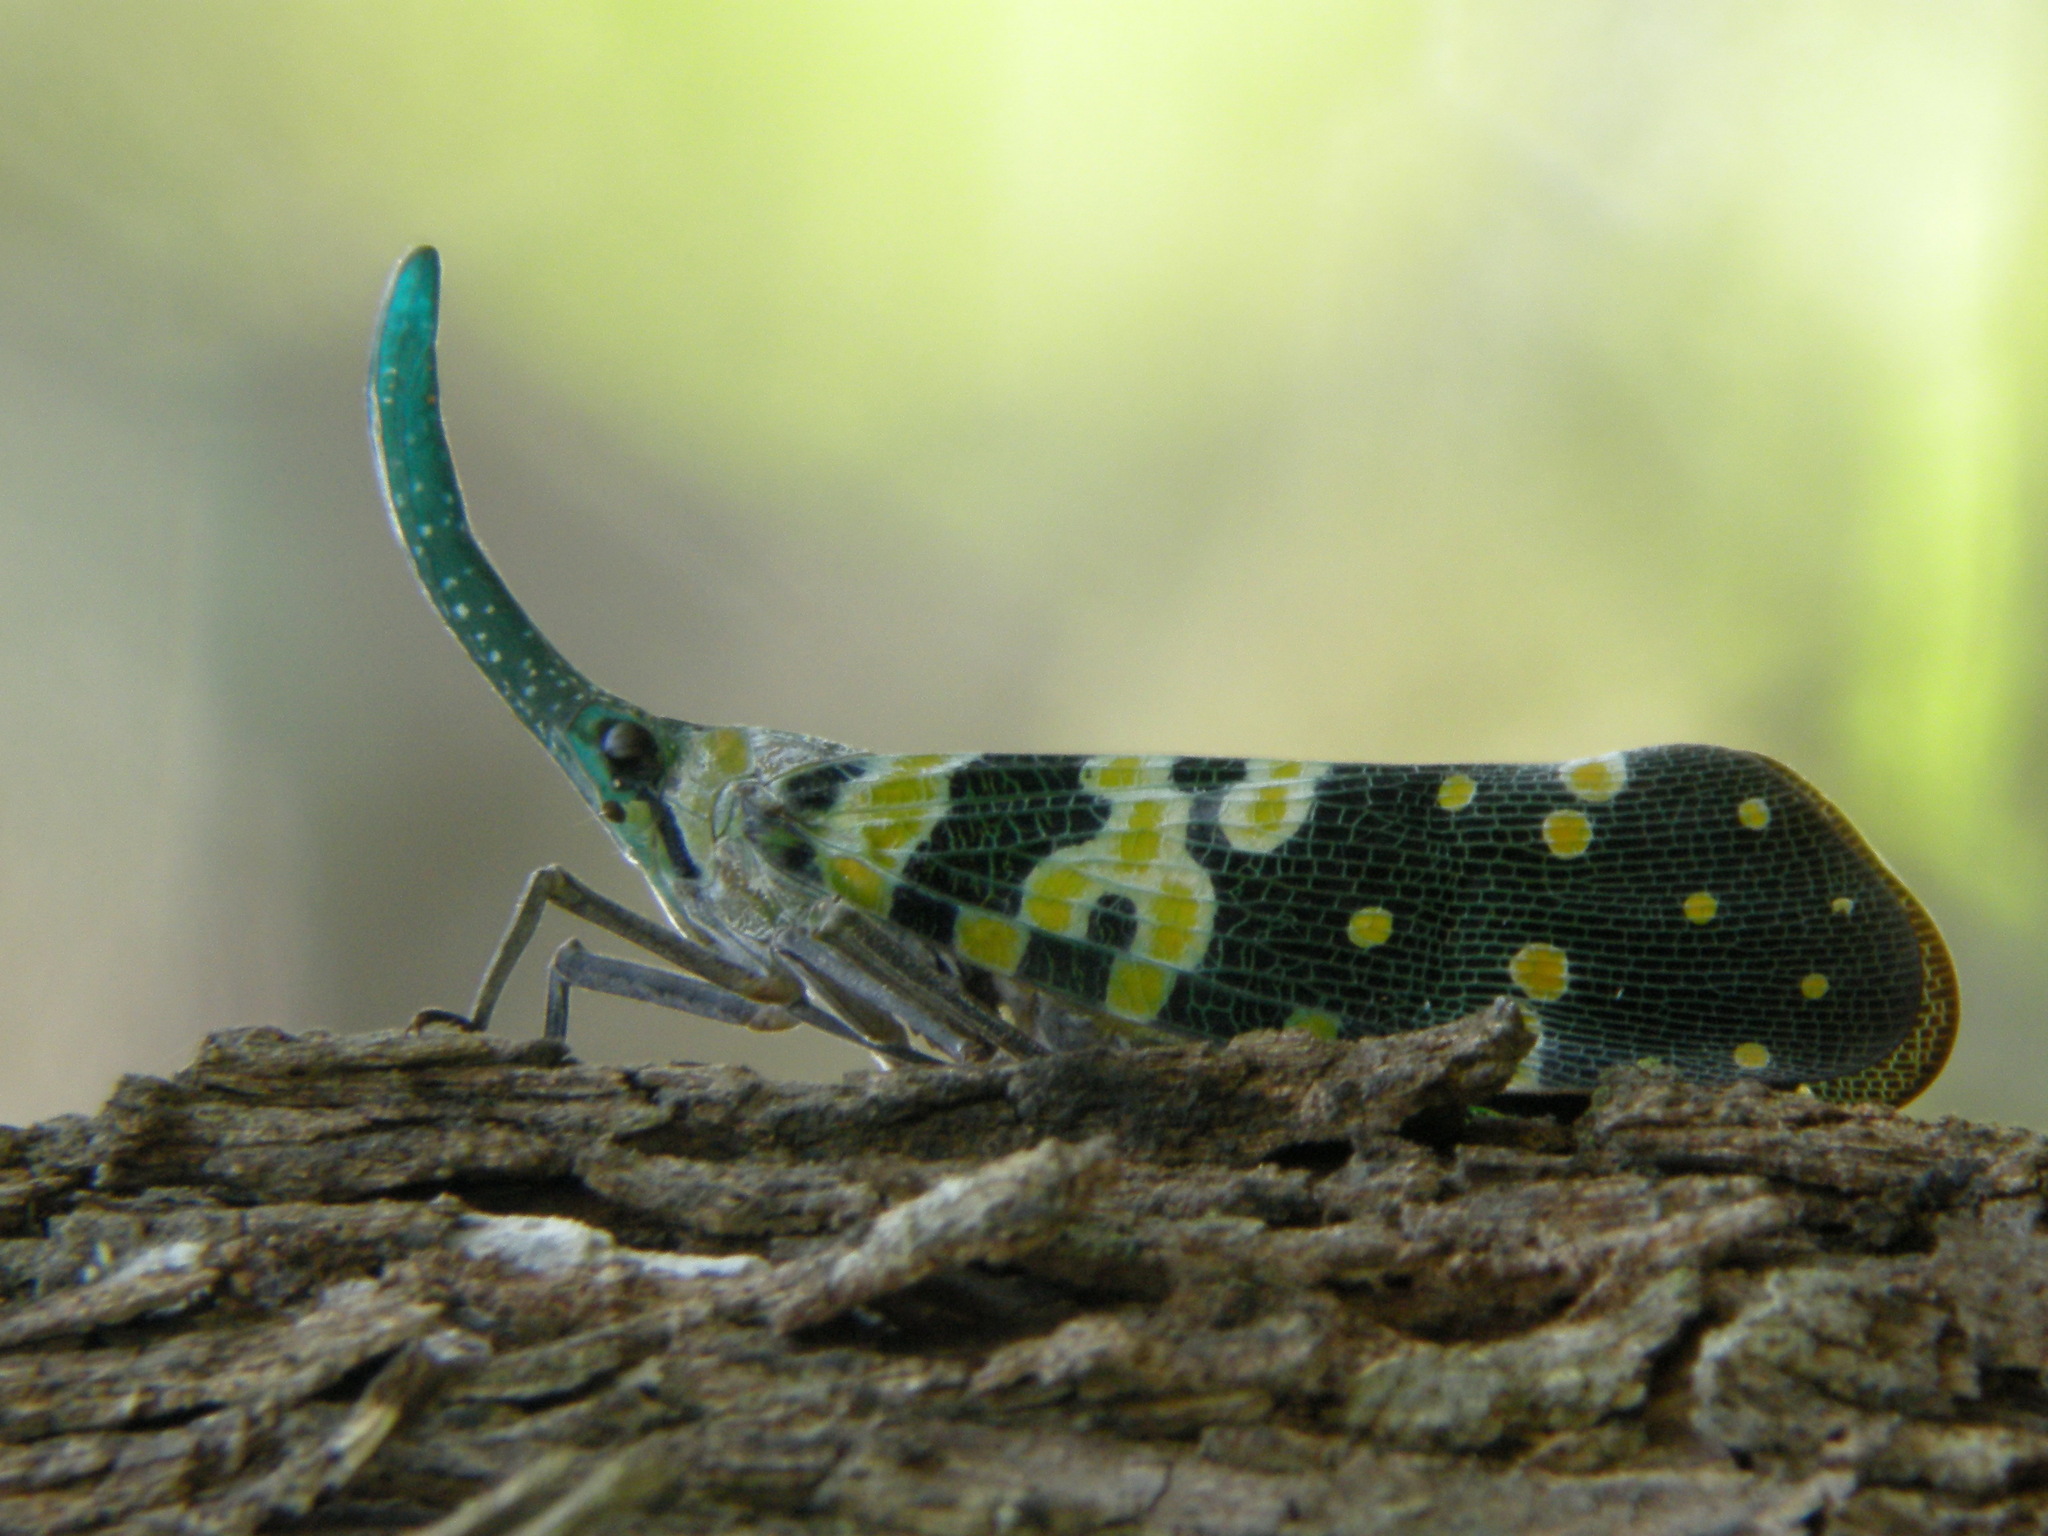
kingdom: Animalia
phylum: Arthropoda
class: Insecta
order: Hemiptera
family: Fulgoridae
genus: Pyrops
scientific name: Pyrops viridirostris
